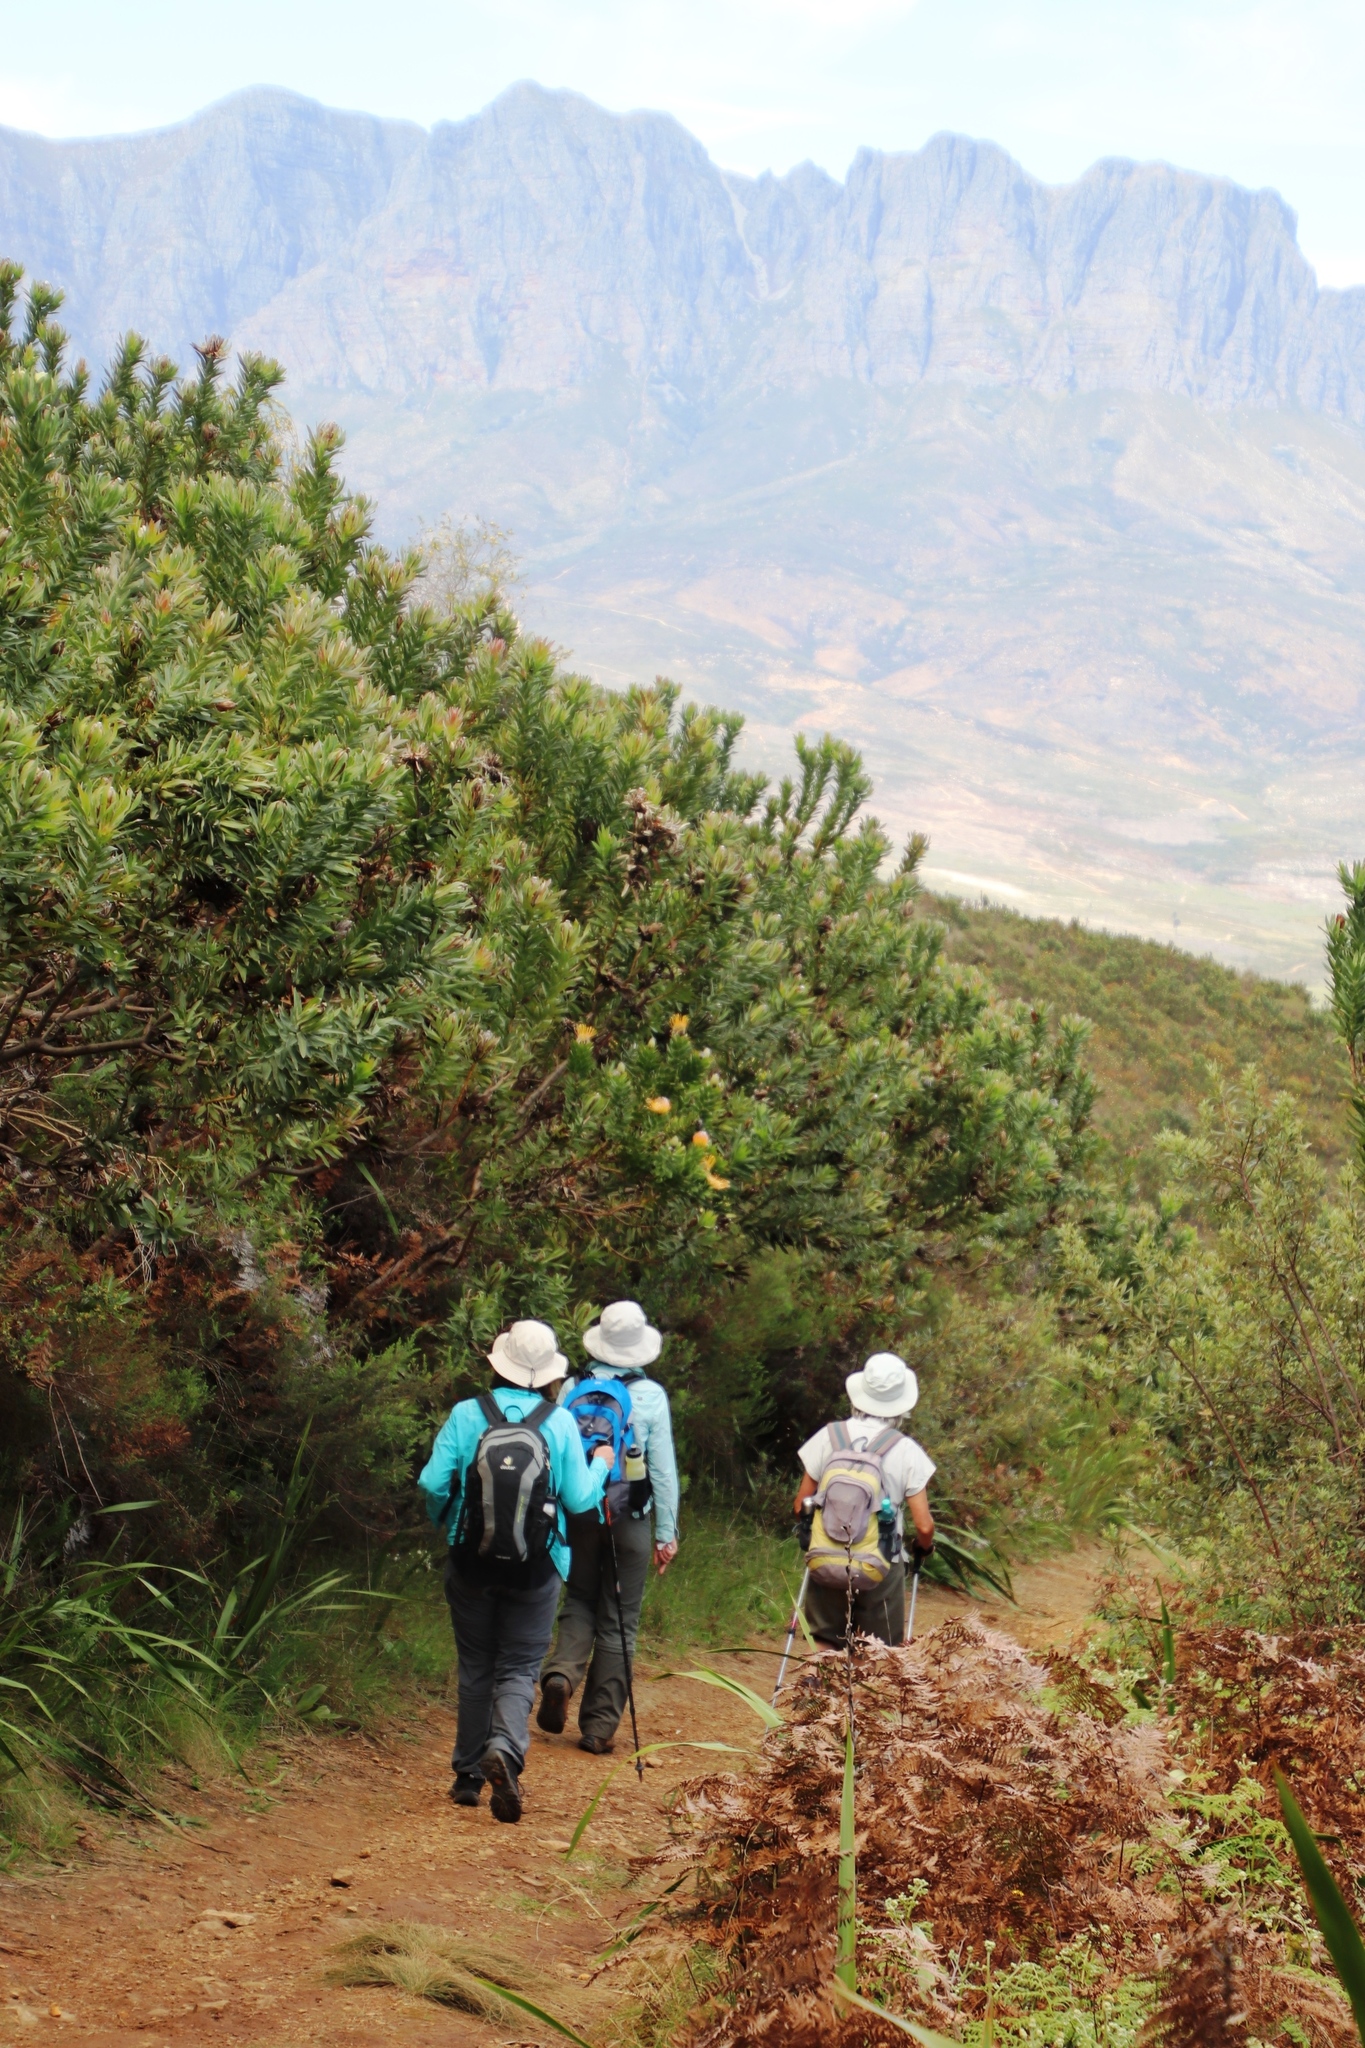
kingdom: Plantae
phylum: Tracheophyta
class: Magnoliopsida
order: Proteales
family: Proteaceae
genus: Leucospermum
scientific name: Leucospermum gueinzii
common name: Kloof fountain pincushion
